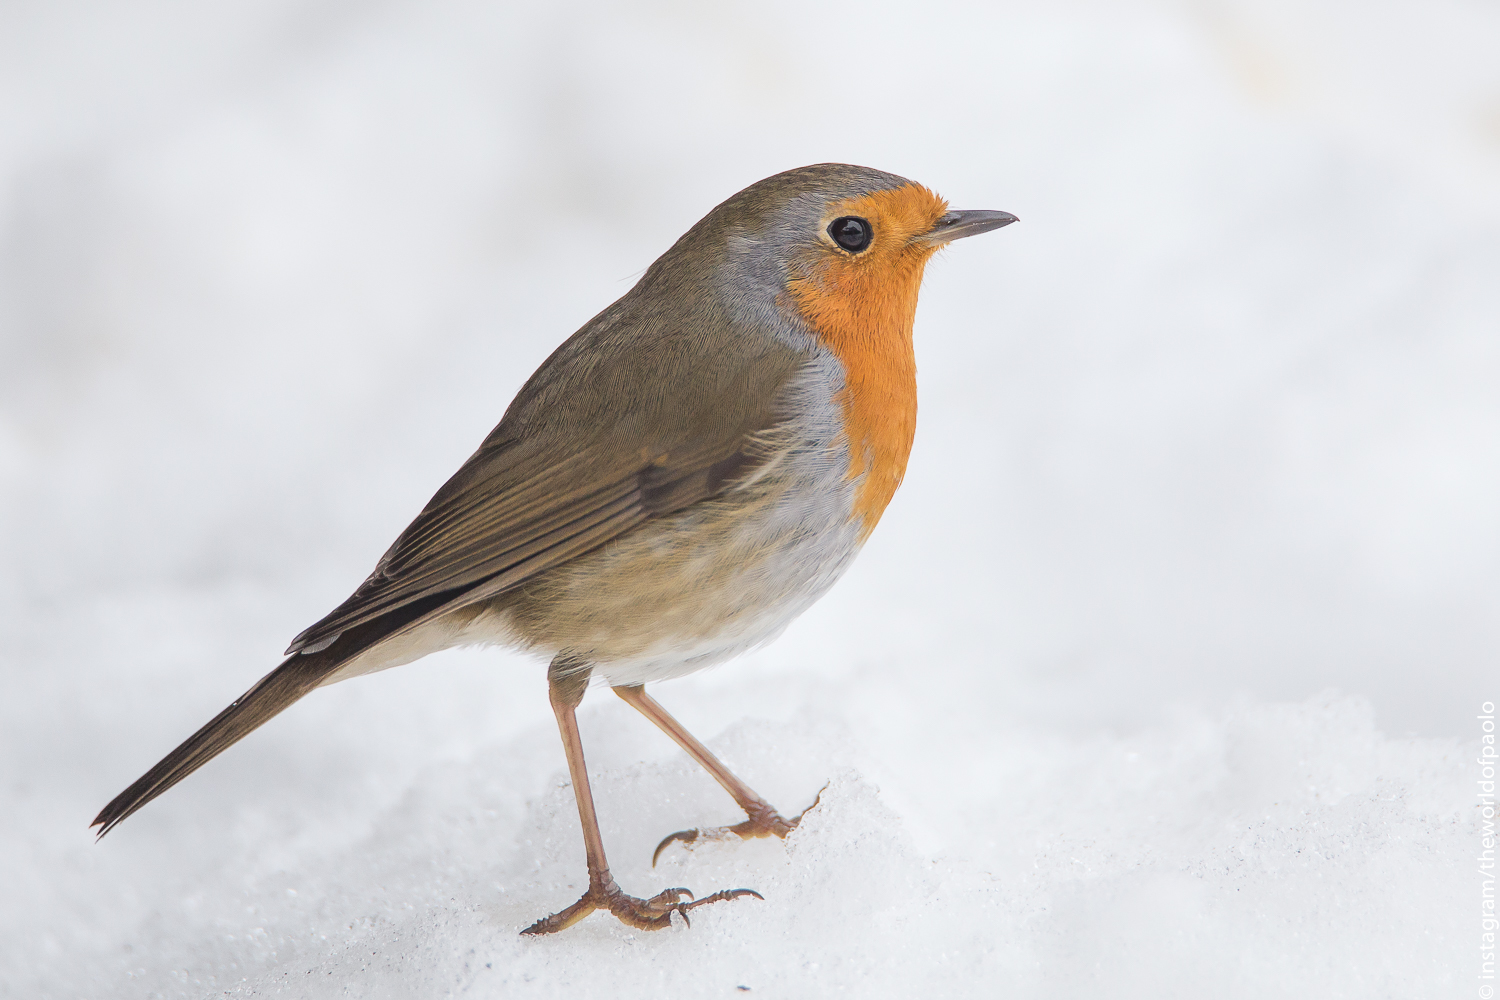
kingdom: Animalia
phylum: Chordata
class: Aves
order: Passeriformes
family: Muscicapidae
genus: Erithacus
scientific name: Erithacus rubecula
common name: European robin
